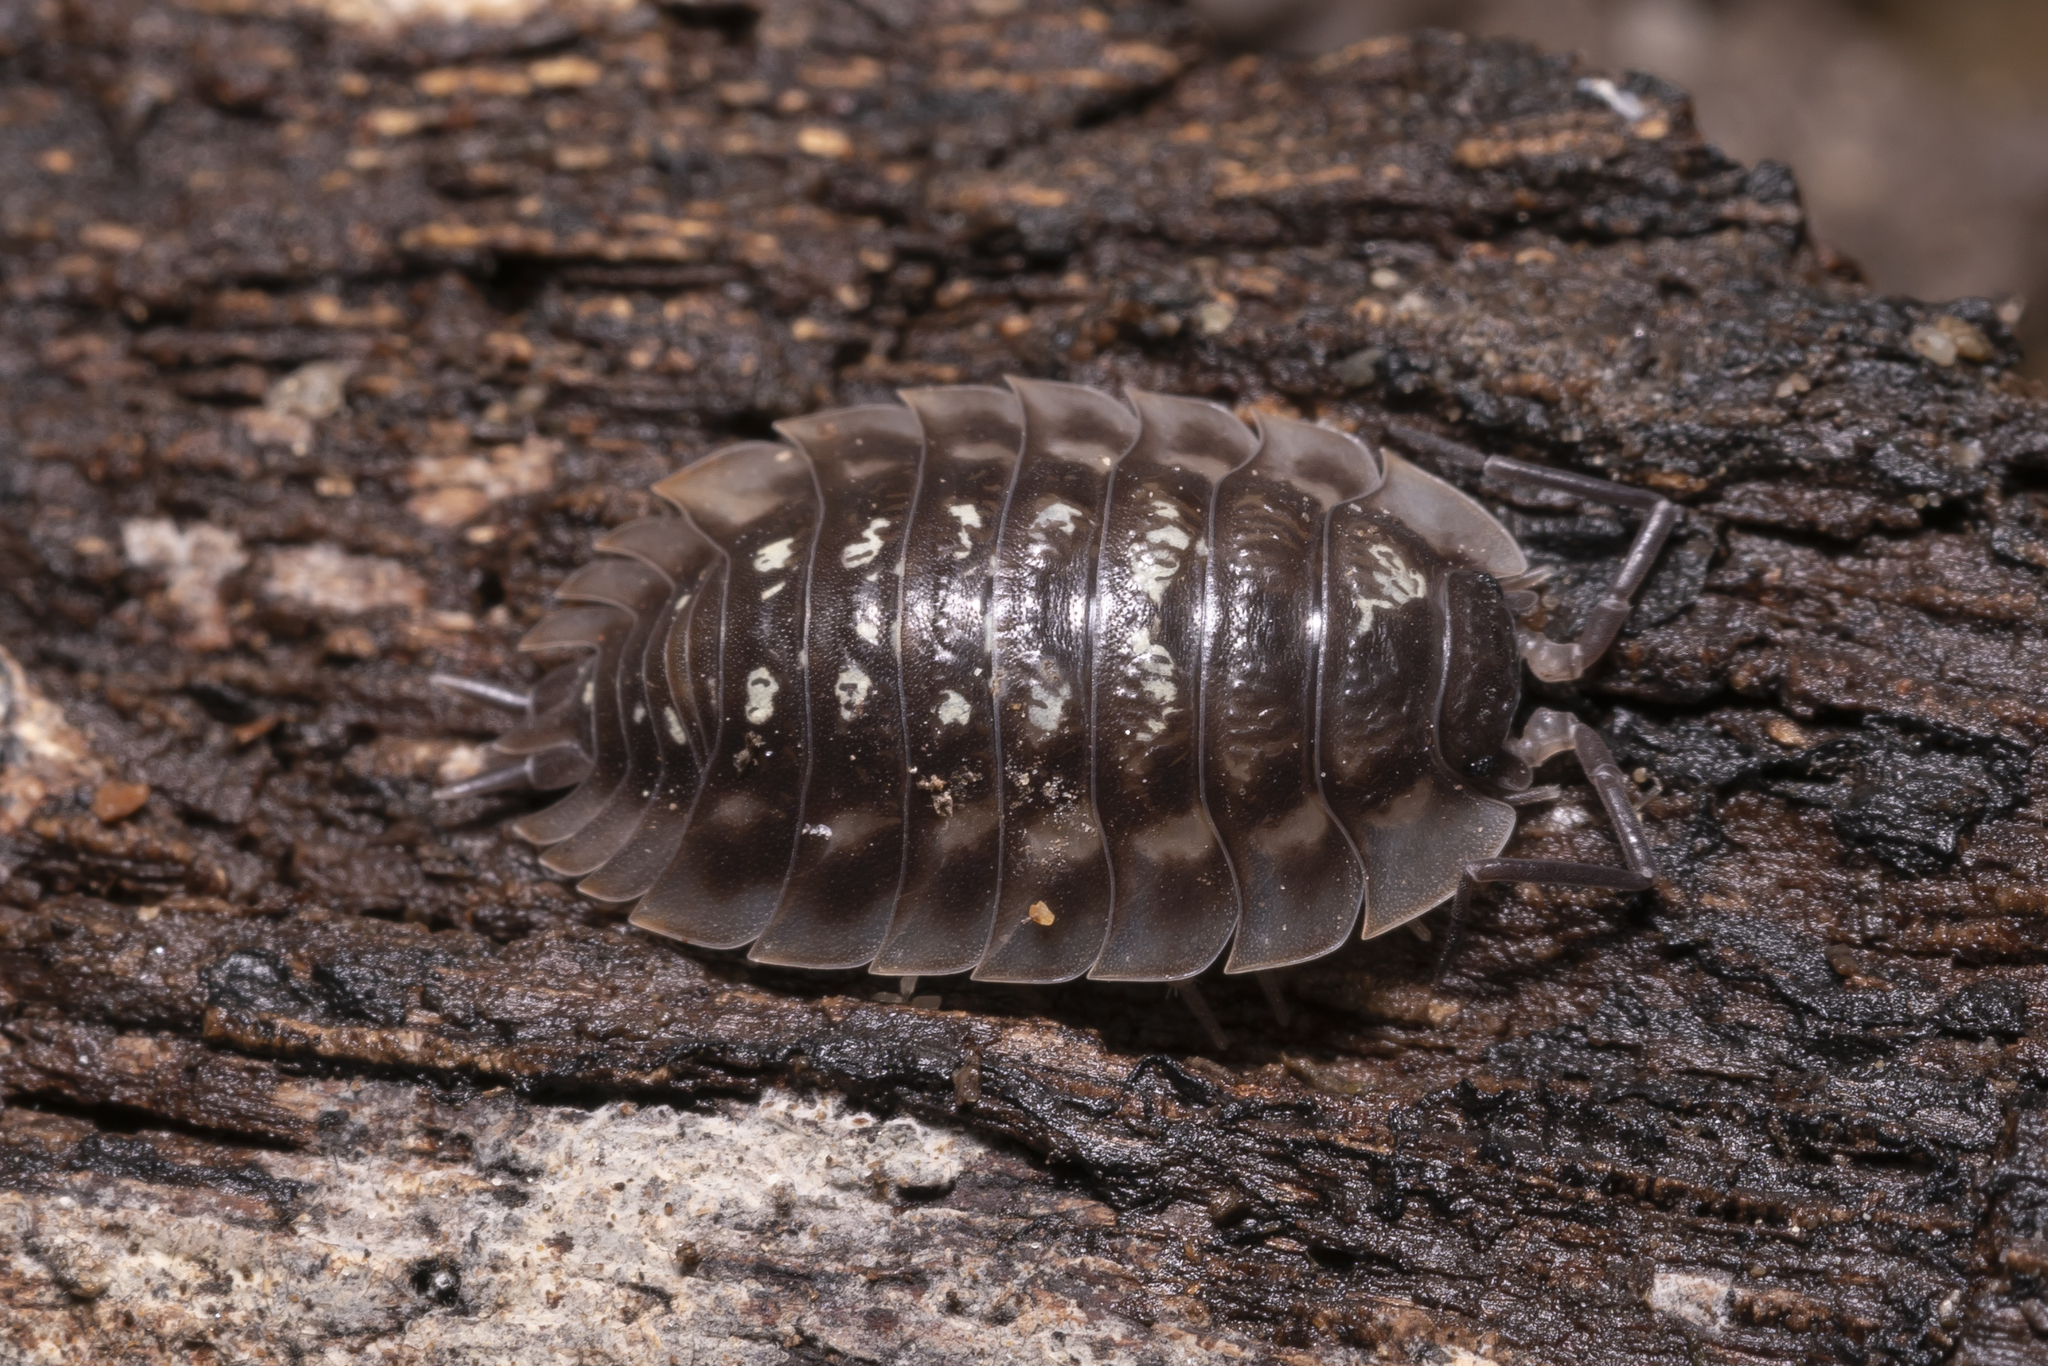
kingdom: Animalia
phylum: Arthropoda
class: Malacostraca
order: Isopoda
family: Oniscidae
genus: Oniscus
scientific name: Oniscus asellus
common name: Common shiny woodlouse
